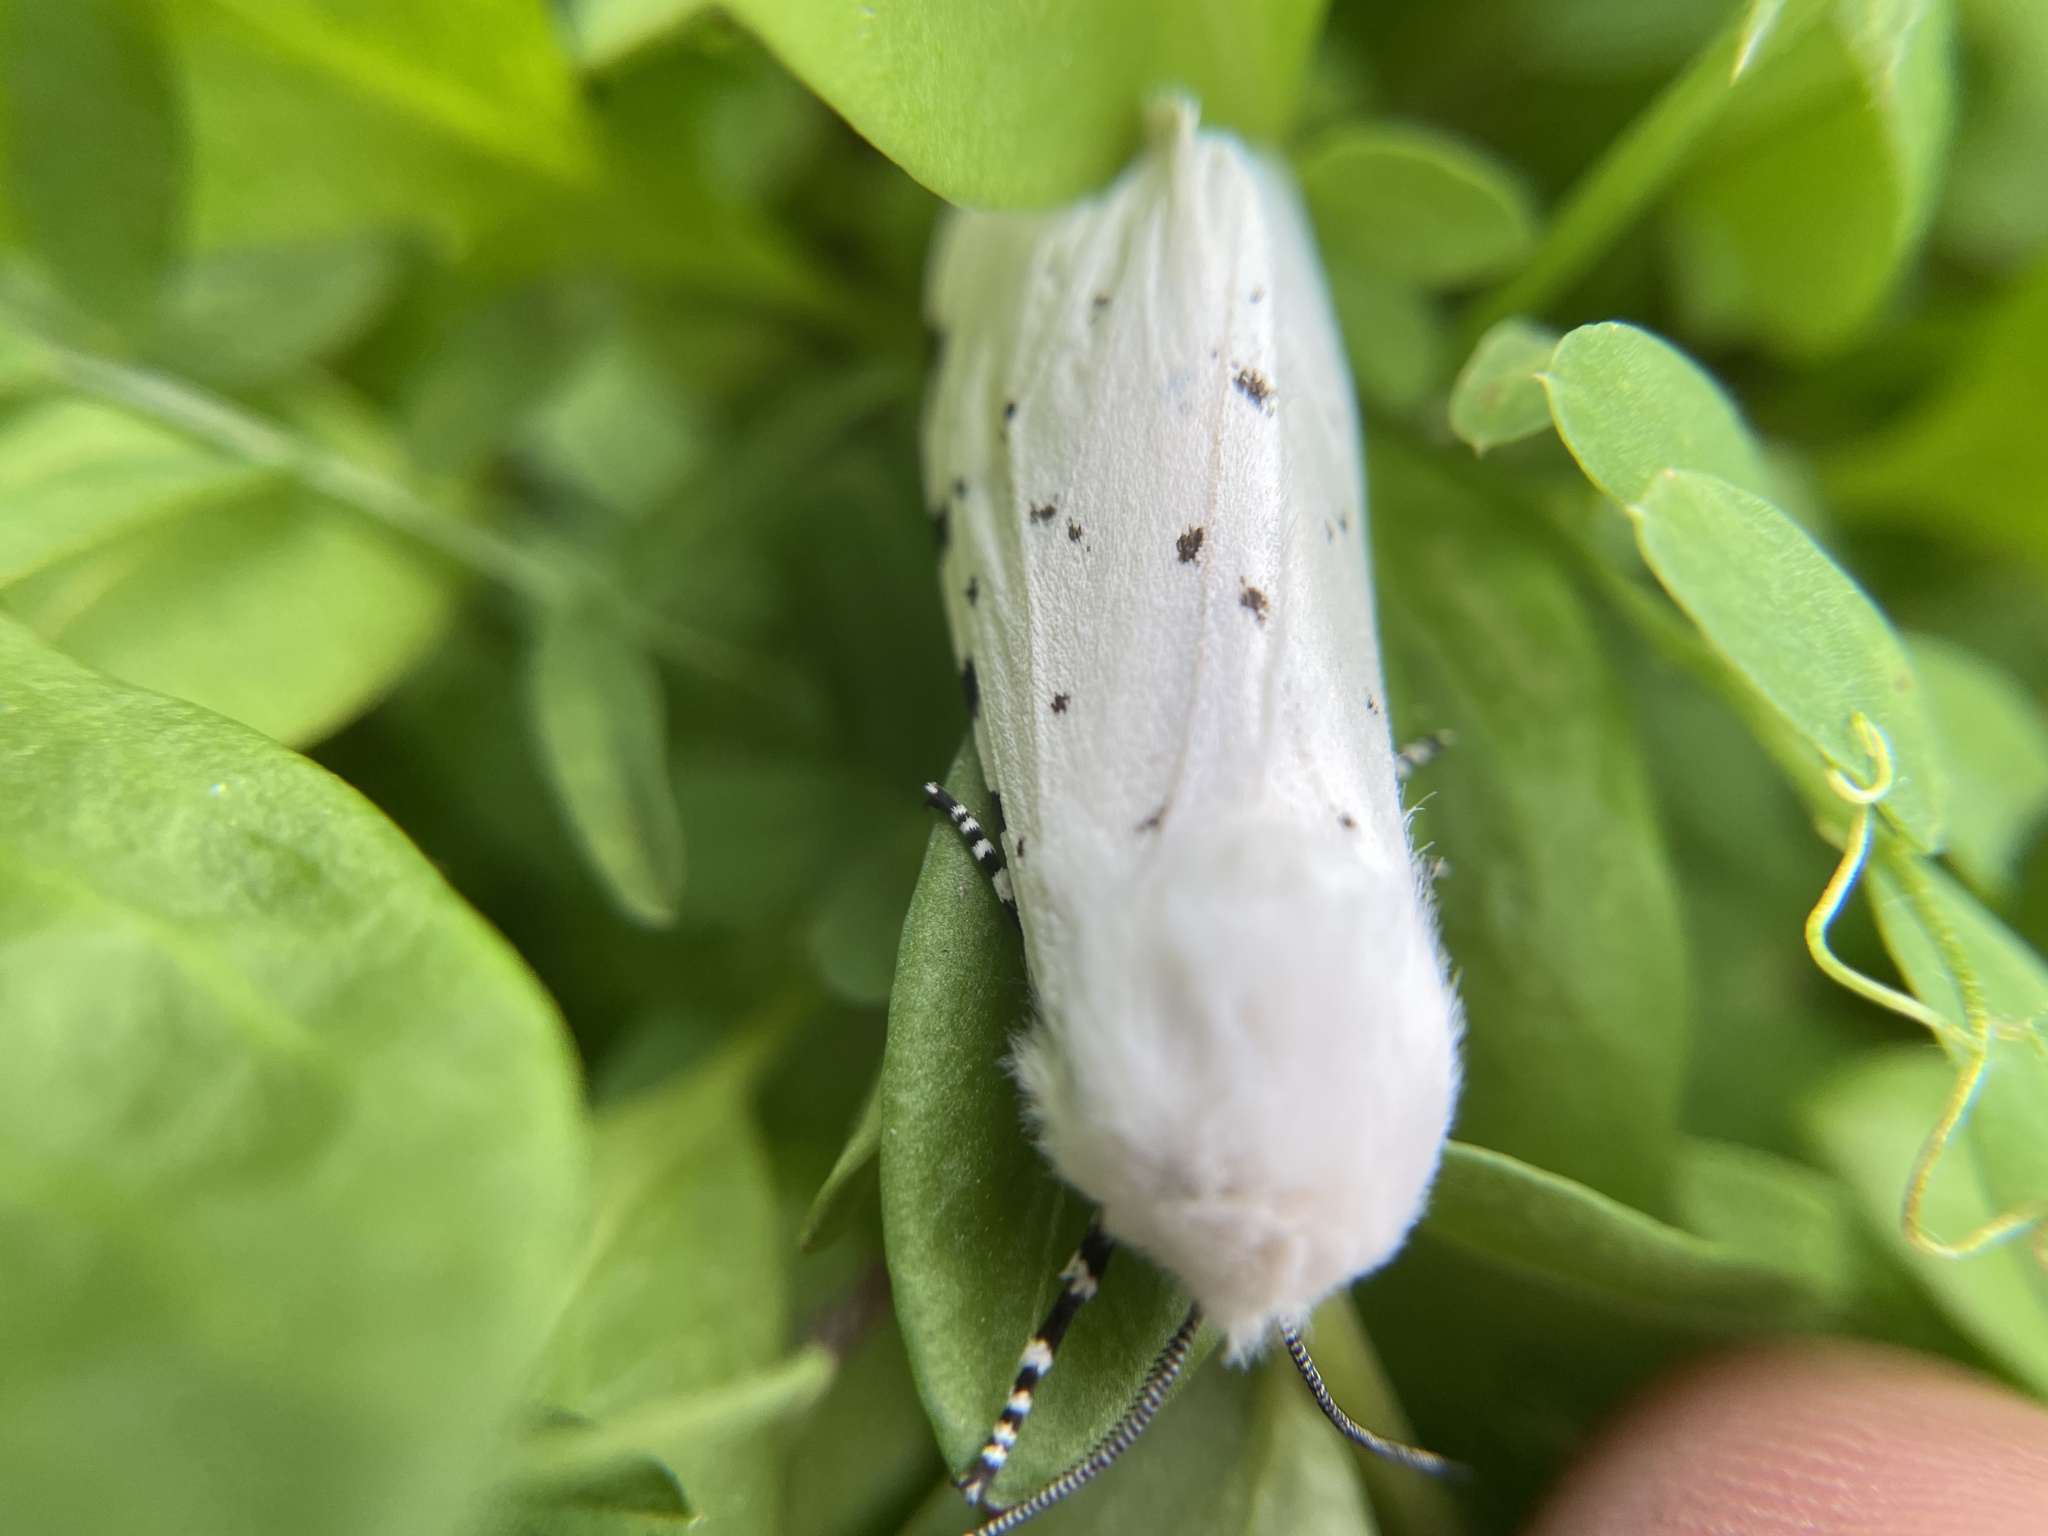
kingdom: Animalia
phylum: Arthropoda
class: Insecta
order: Lepidoptera
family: Erebidae
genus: Estigmene
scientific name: Estigmene acrea
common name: Salt marsh moth
